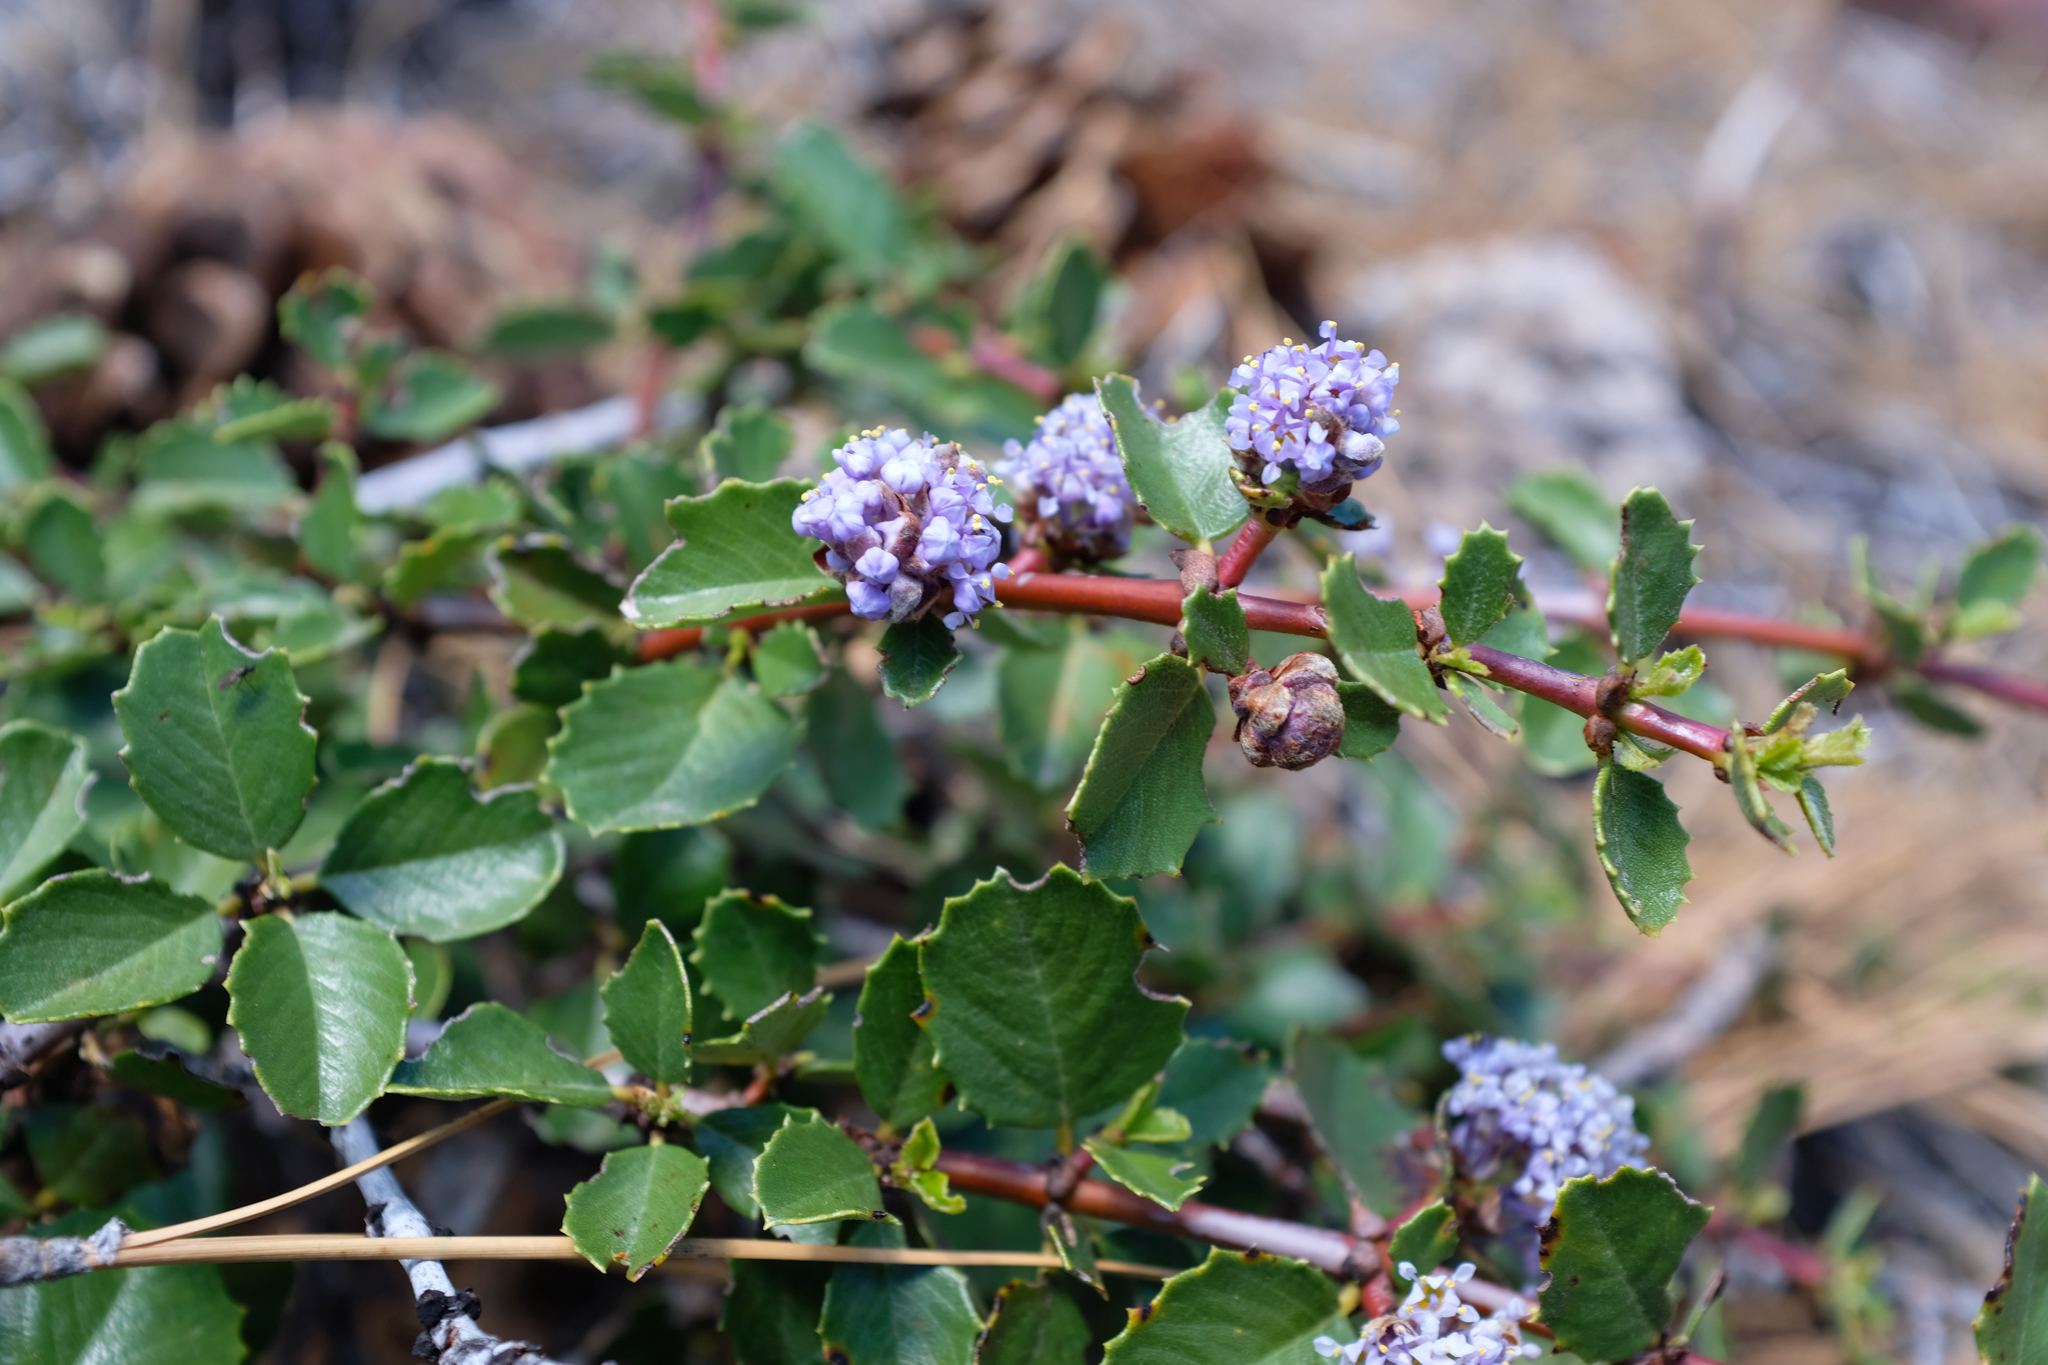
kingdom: Plantae
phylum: Tracheophyta
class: Magnoliopsida
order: Rosales
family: Rhamnaceae
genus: Ceanothus
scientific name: Ceanothus pinetorum
